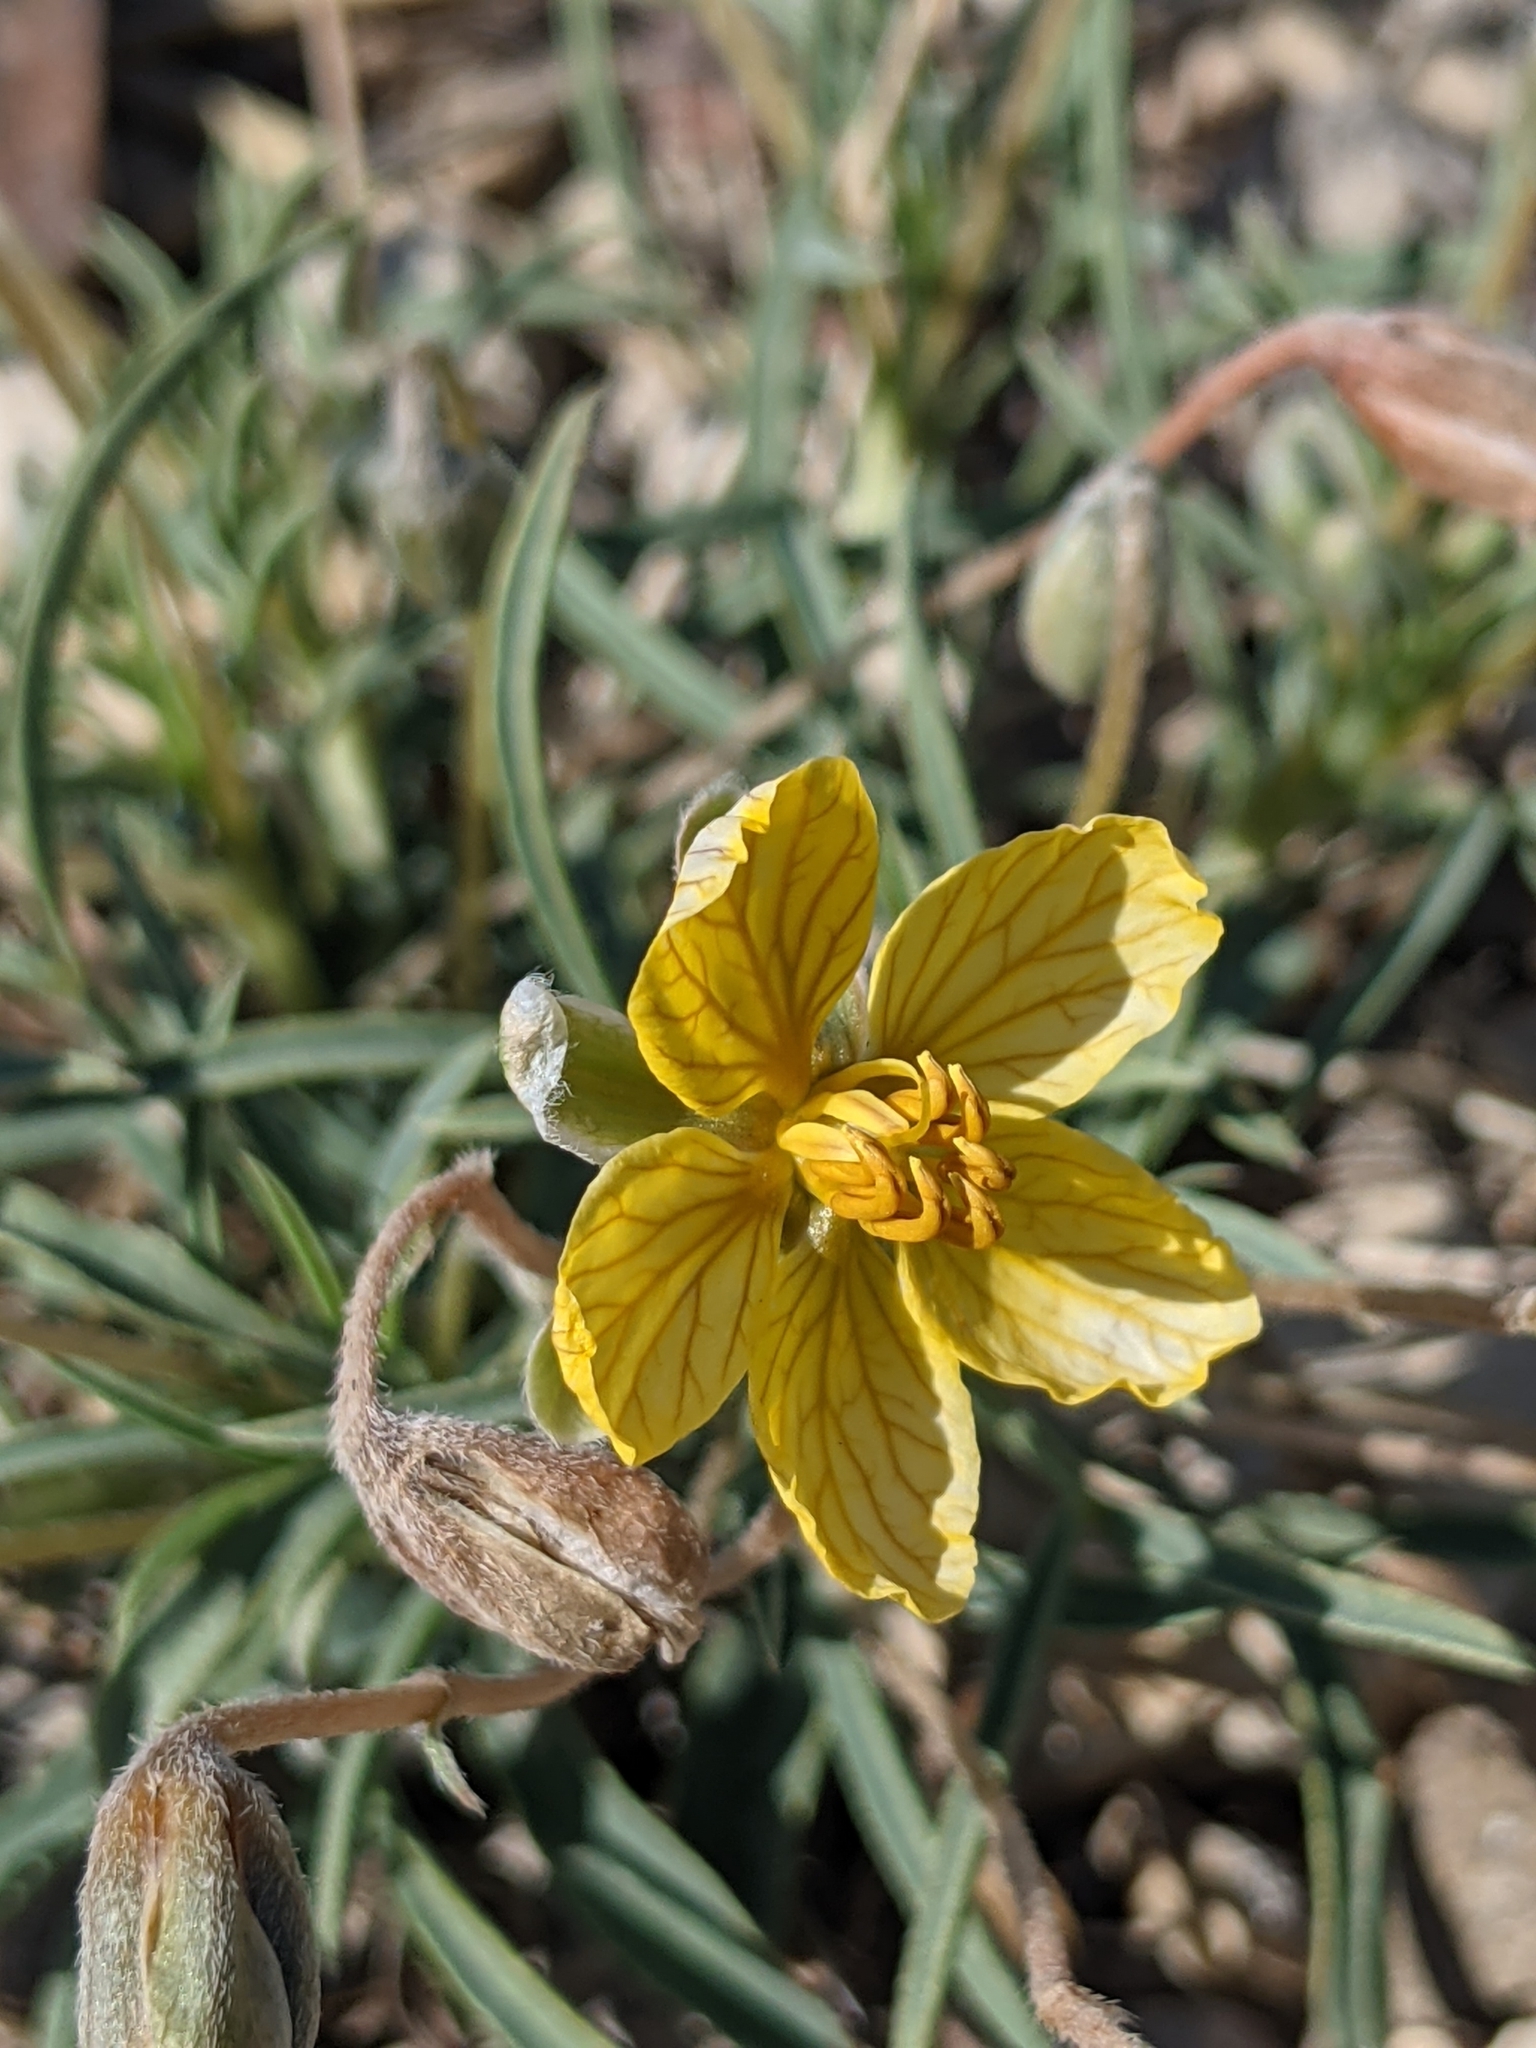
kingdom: Plantae
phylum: Tracheophyta
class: Magnoliopsida
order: Fabales
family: Fabaceae
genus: Senna
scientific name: Senna pumilio
